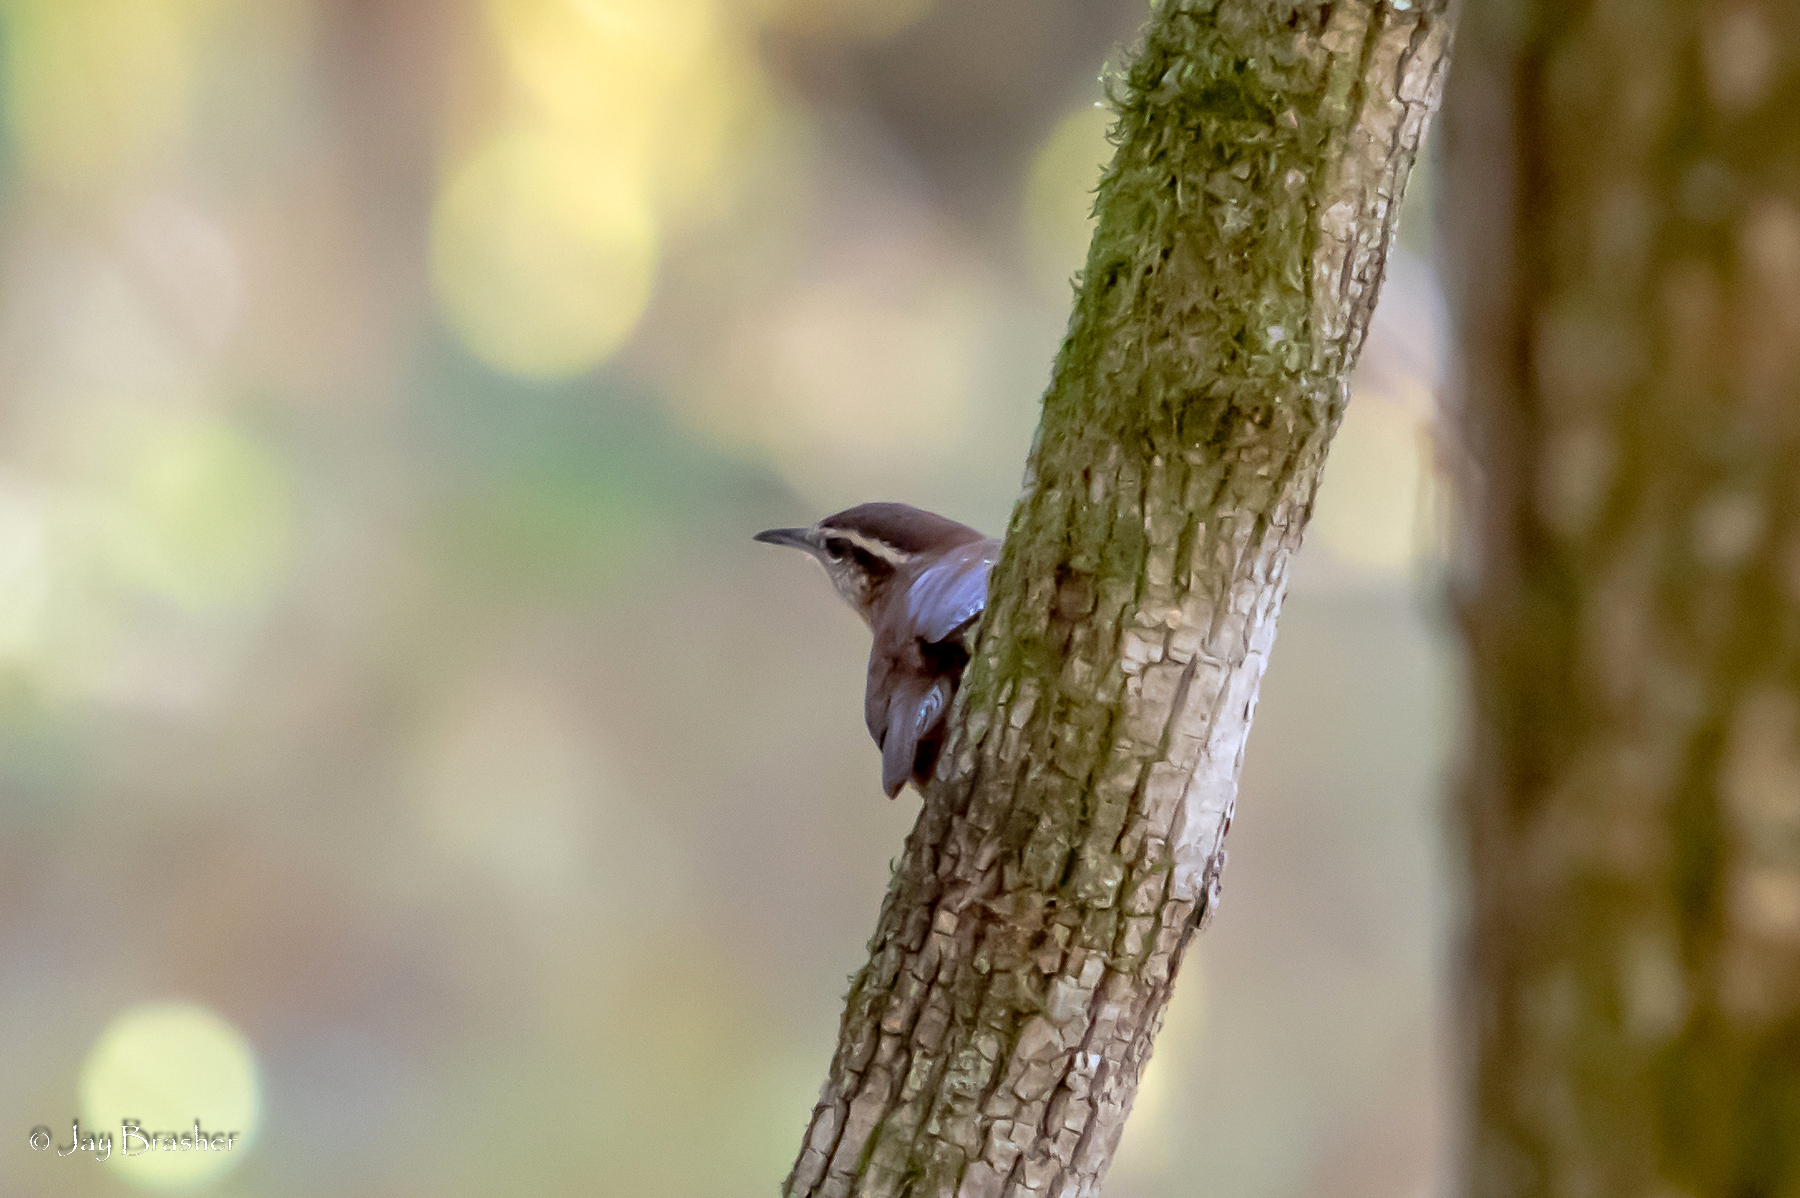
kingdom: Animalia
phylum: Chordata
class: Aves
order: Passeriformes
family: Troglodytidae
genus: Thryothorus
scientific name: Thryothorus ludovicianus
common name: Carolina wren
